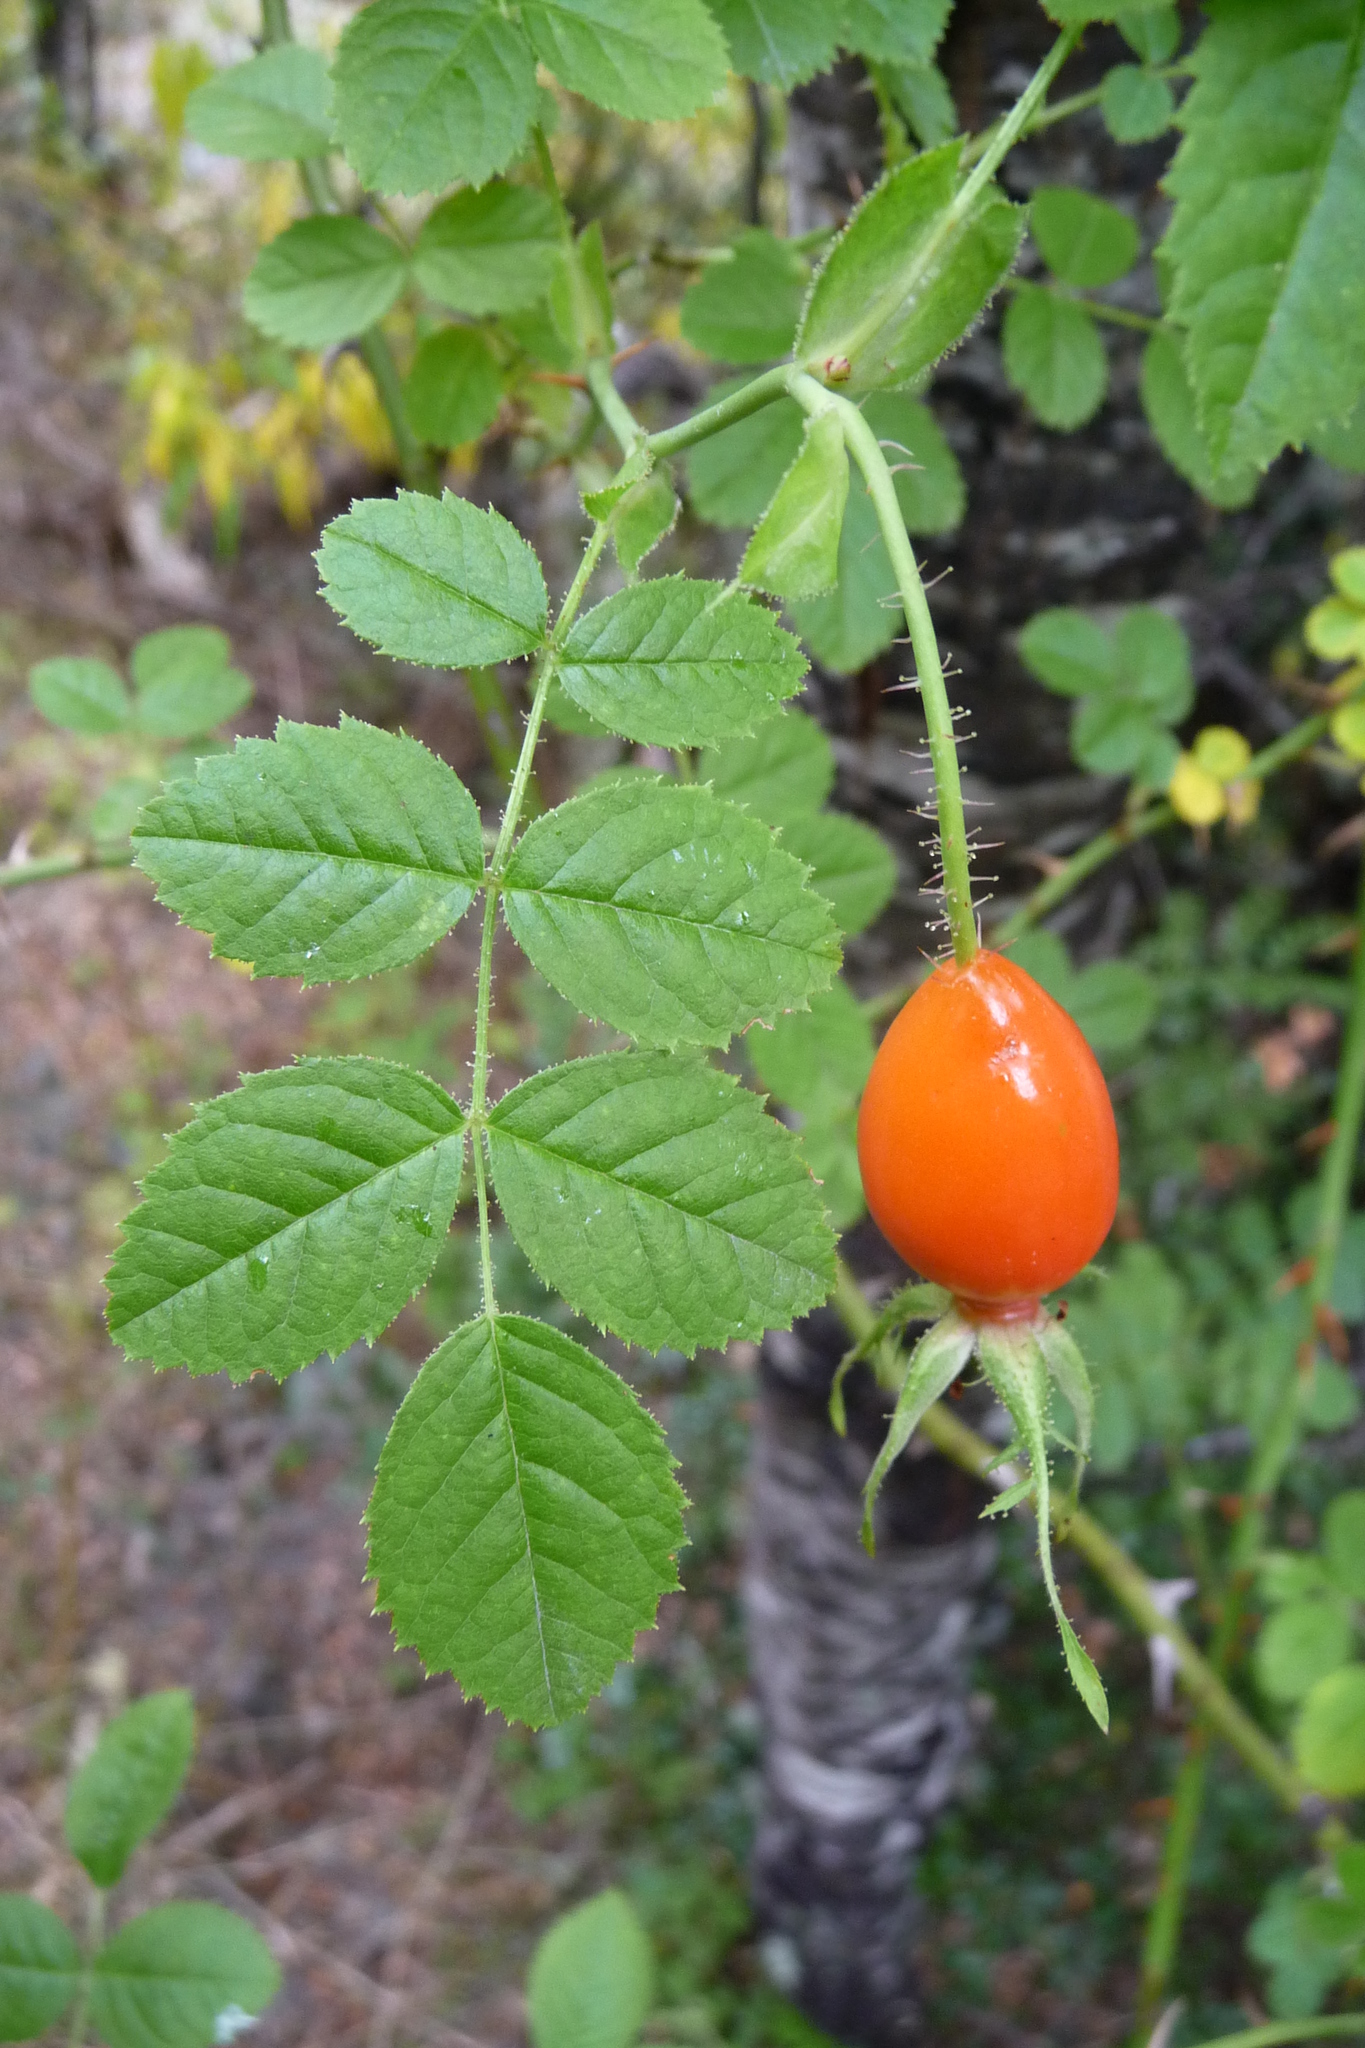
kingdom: Plantae
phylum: Tracheophyta
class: Magnoliopsida
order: Rosales
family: Rosaceae
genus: Rosa
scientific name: Rosa rubiginosa
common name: Sweet-briar
